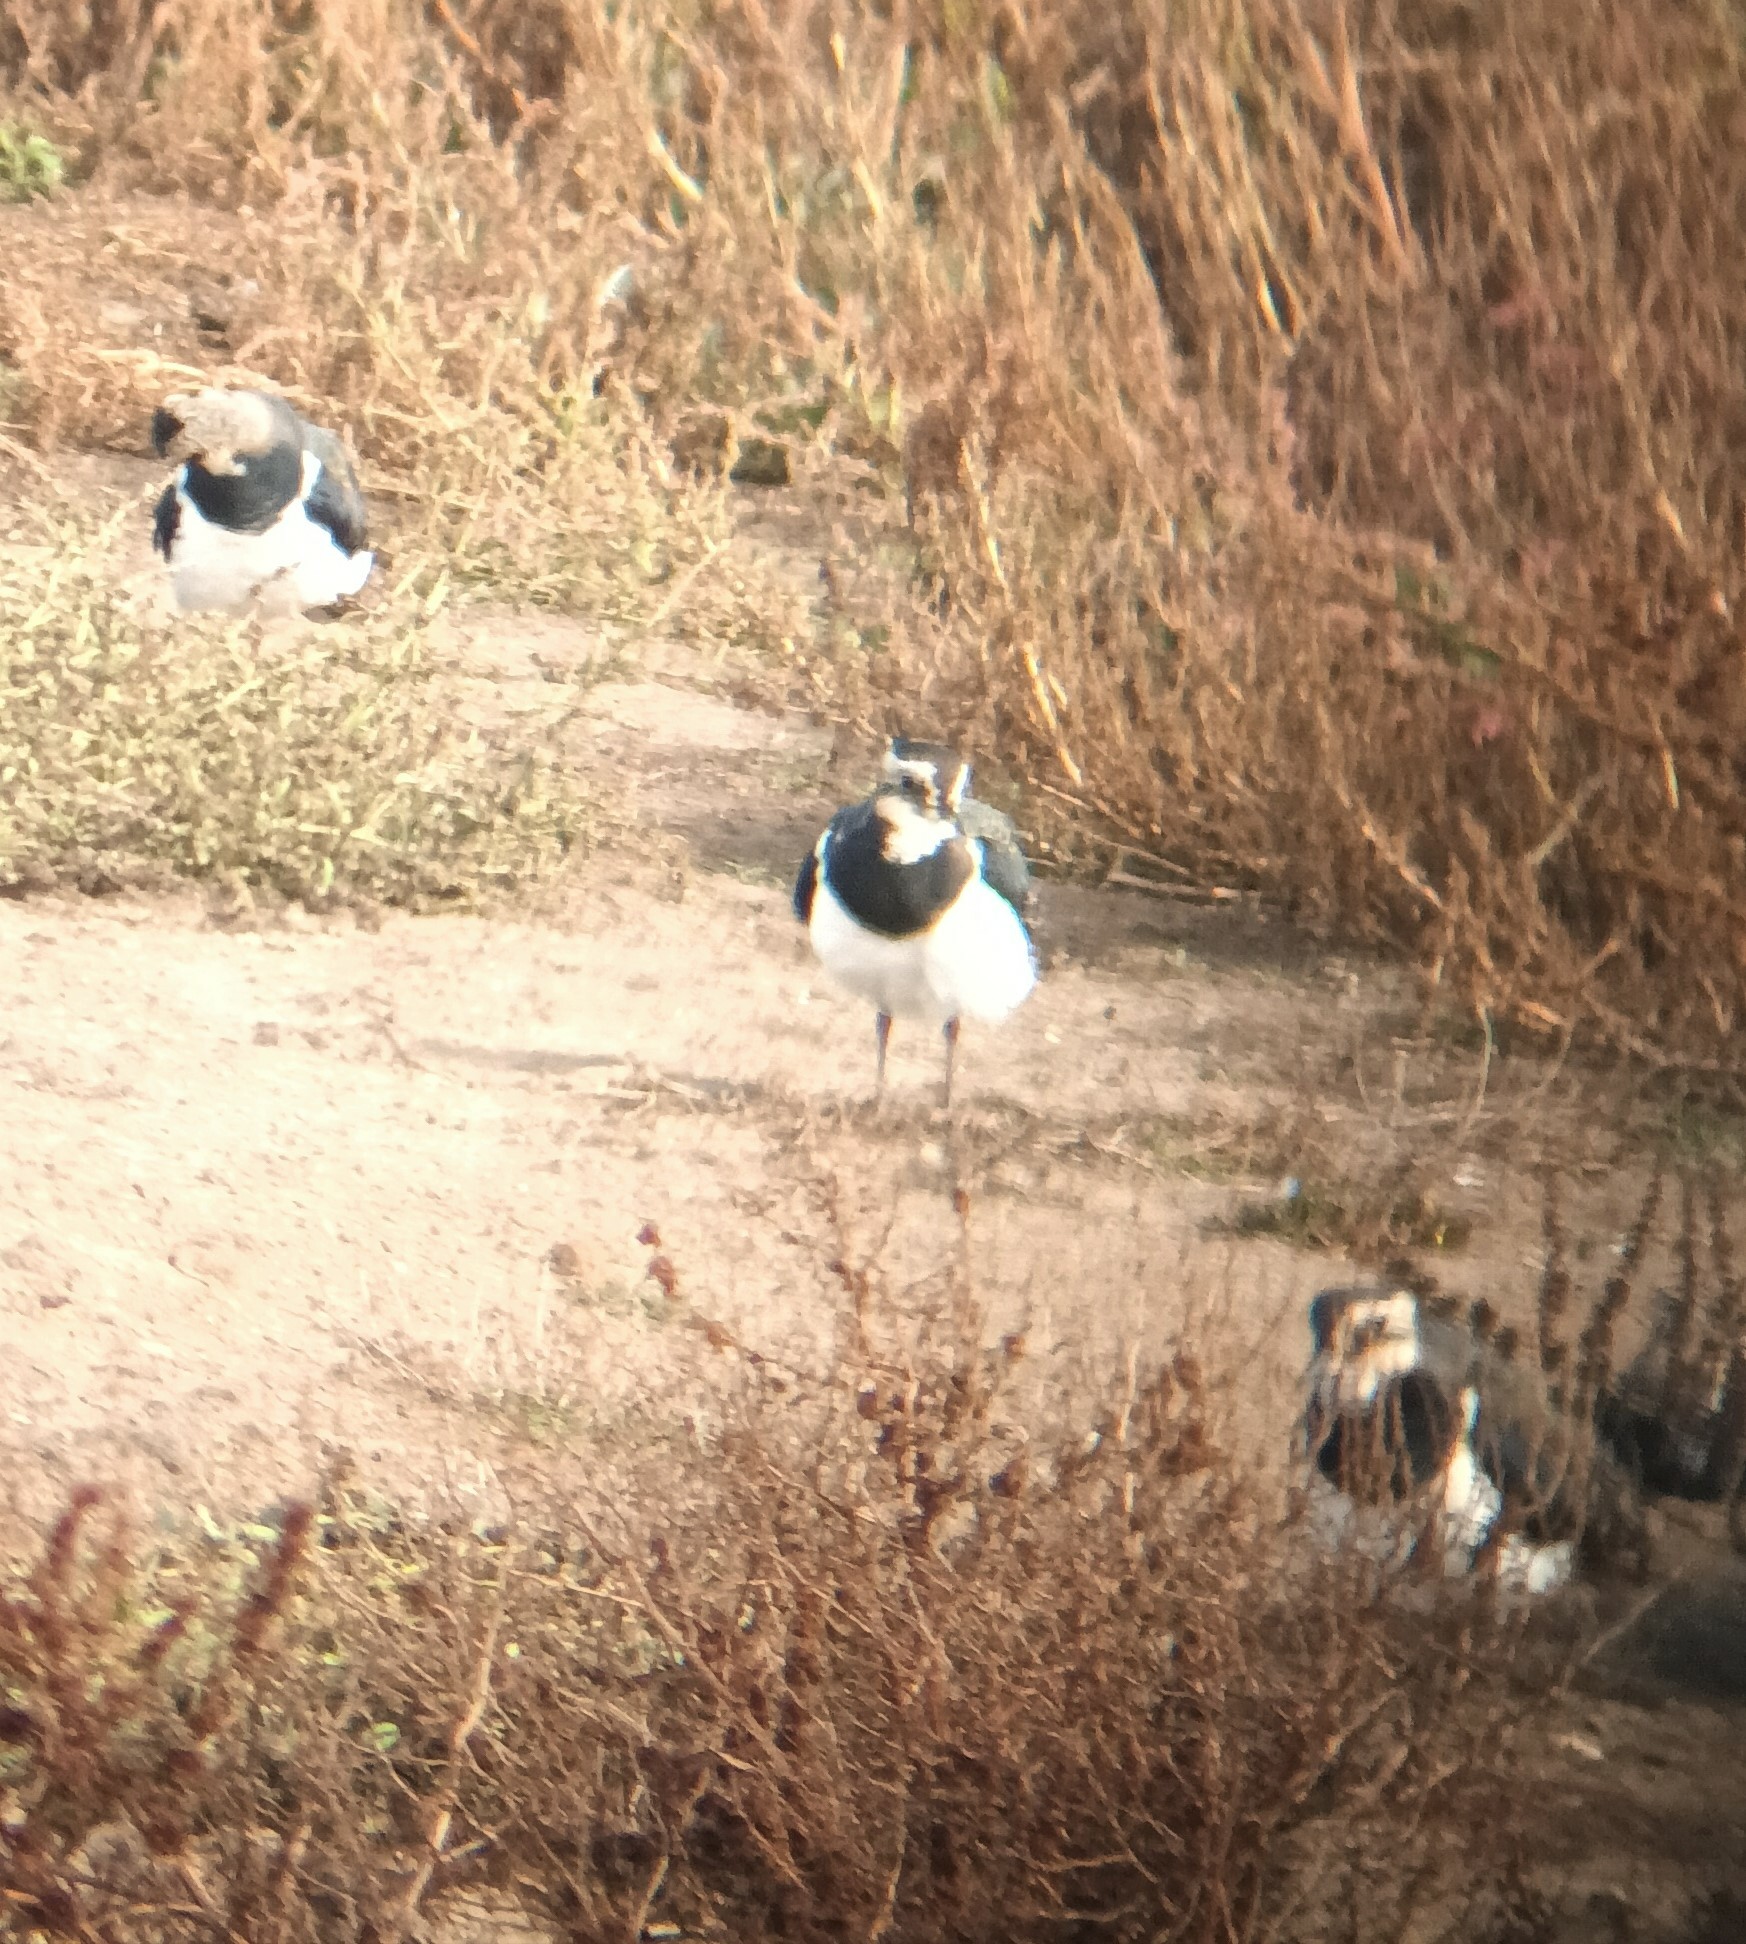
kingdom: Animalia
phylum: Chordata
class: Aves
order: Charadriiformes
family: Charadriidae
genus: Vanellus
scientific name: Vanellus vanellus
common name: Northern lapwing
